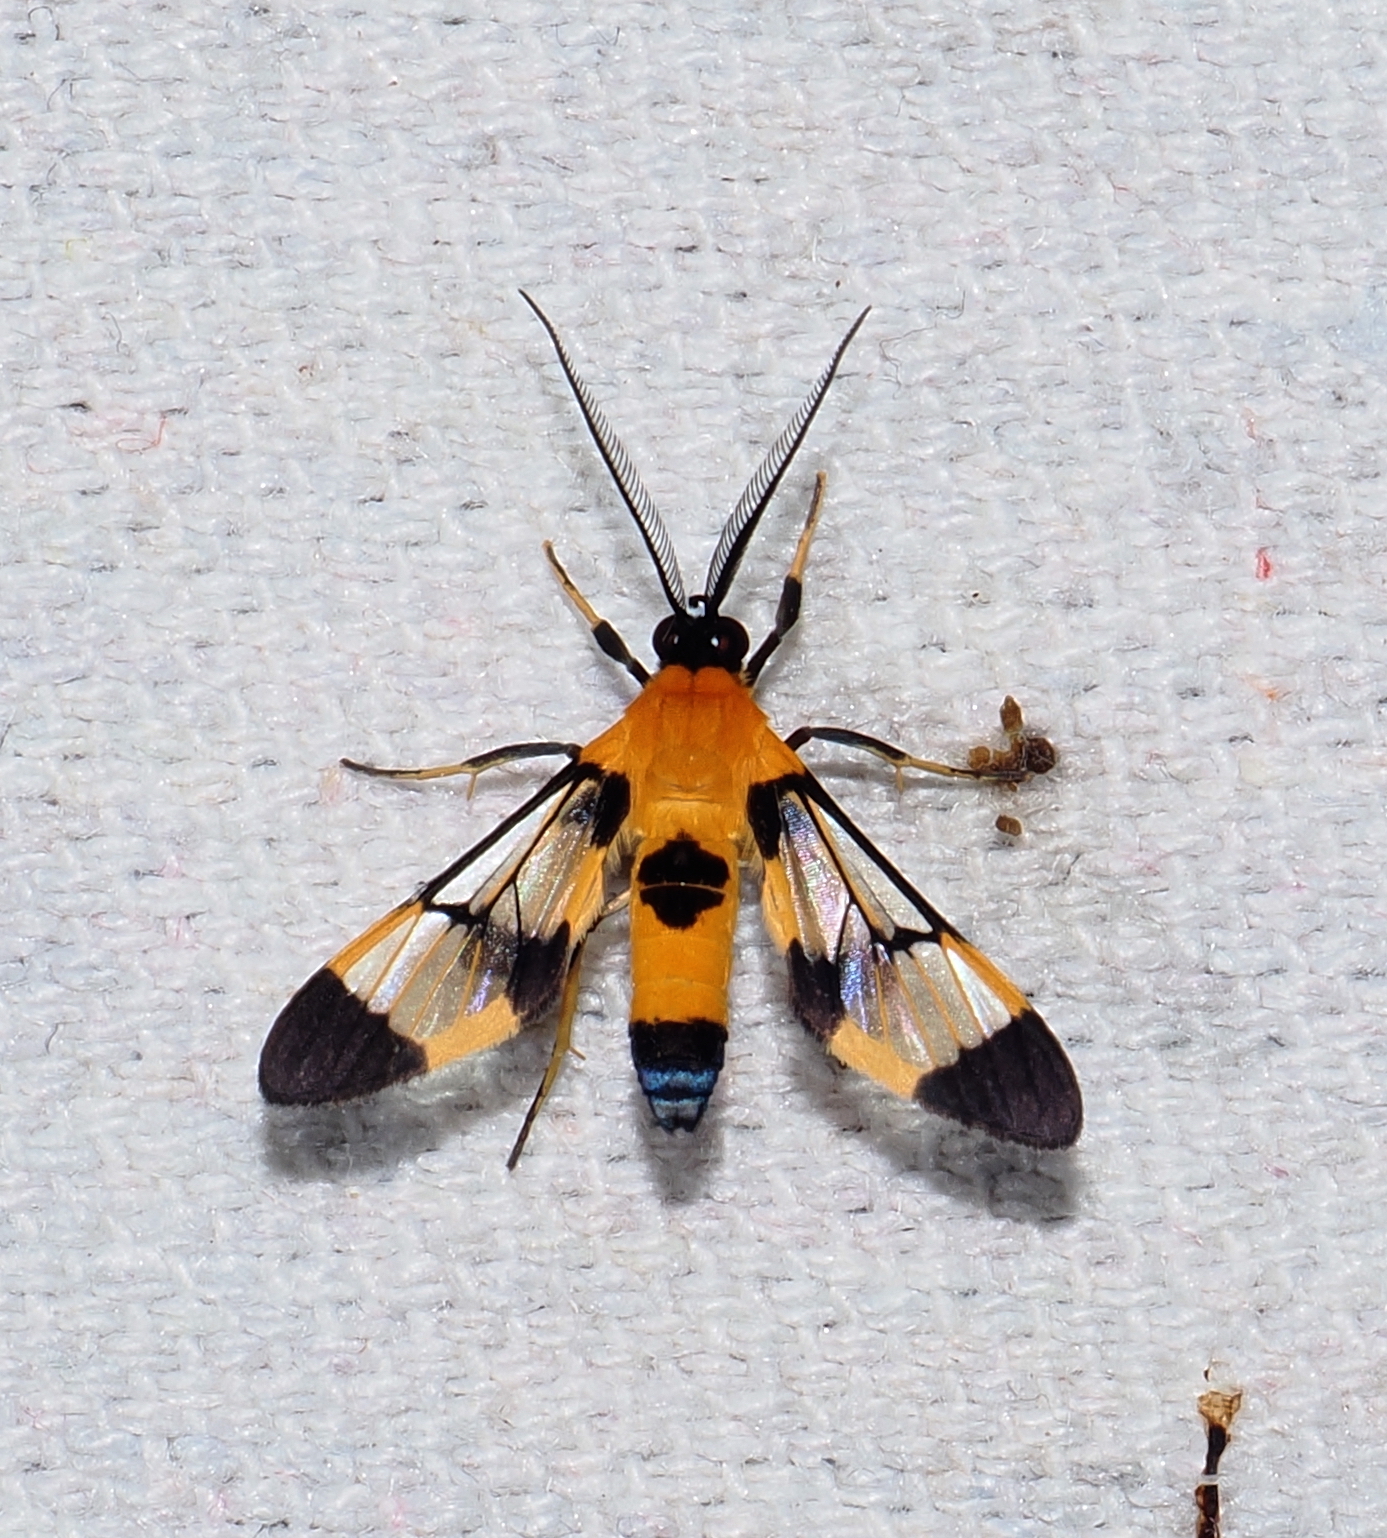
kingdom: Animalia
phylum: Arthropoda
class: Insecta
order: Lepidoptera
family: Erebidae
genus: Loxophlebia
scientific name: Loxophlebia flavipicta
